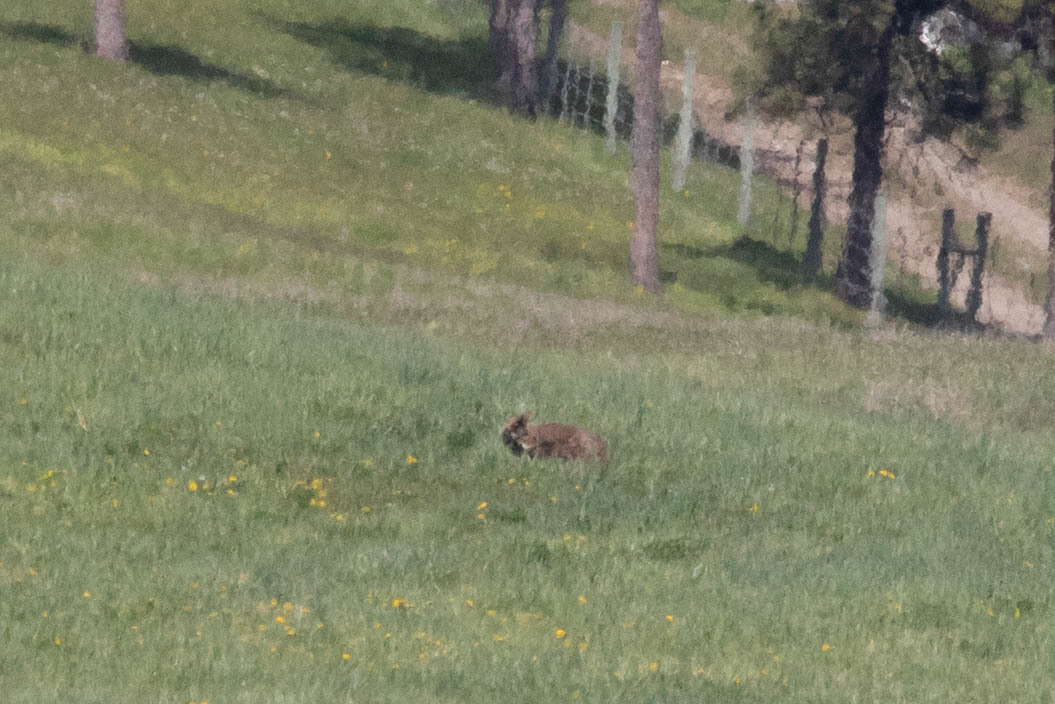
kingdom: Animalia
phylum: Chordata
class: Mammalia
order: Carnivora
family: Canidae
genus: Canis
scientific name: Canis latrans
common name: Coyote
